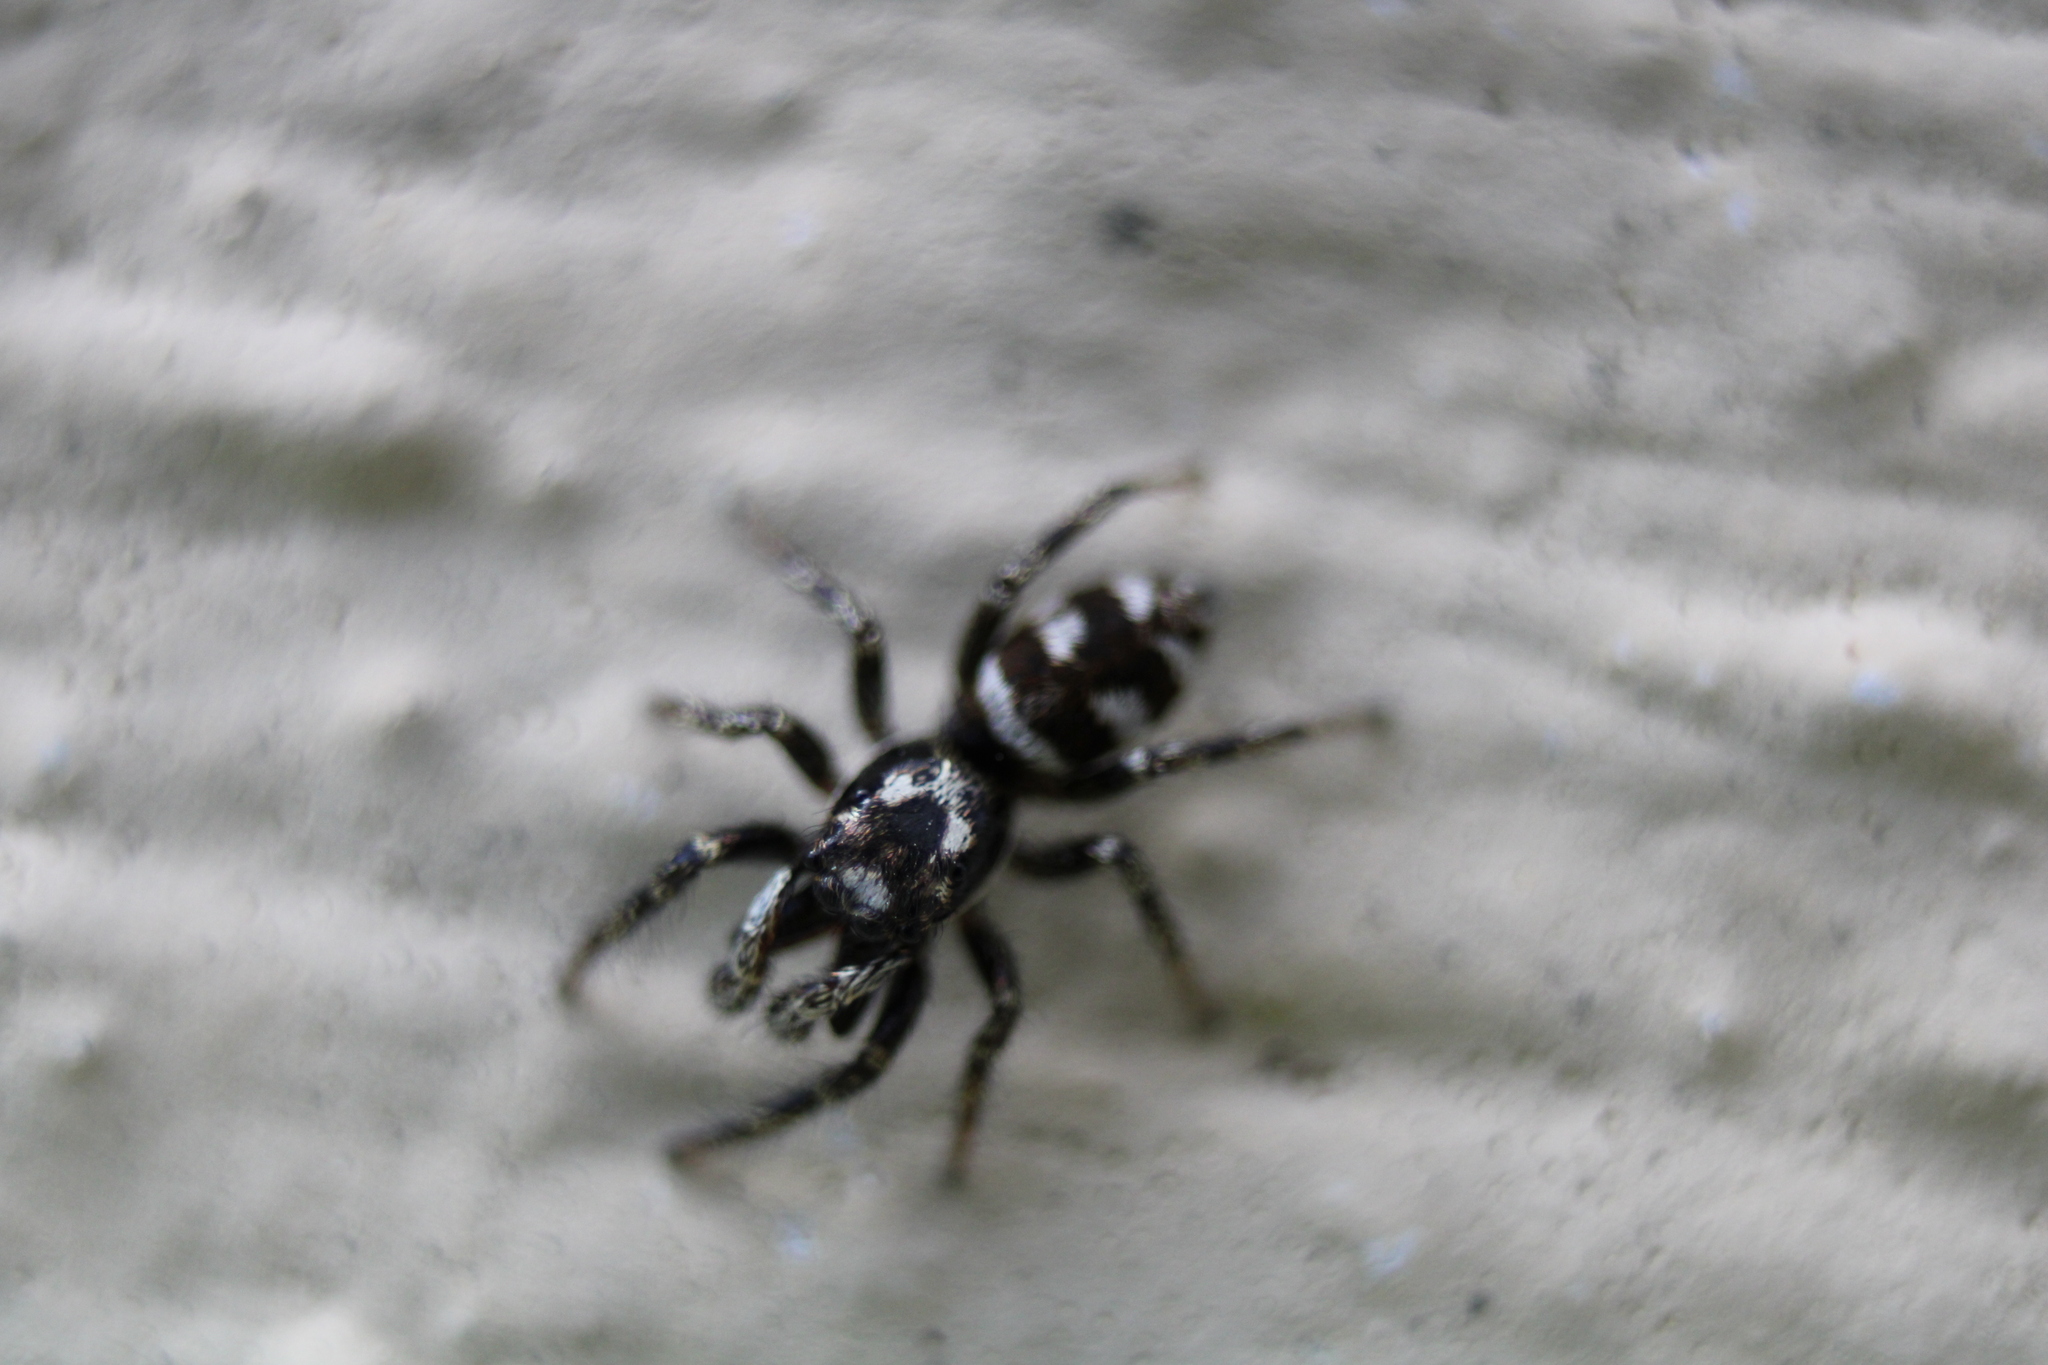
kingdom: Animalia
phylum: Arthropoda
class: Arachnida
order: Araneae
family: Salticidae
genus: Salticus
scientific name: Salticus scenicus
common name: Zebra jumper
